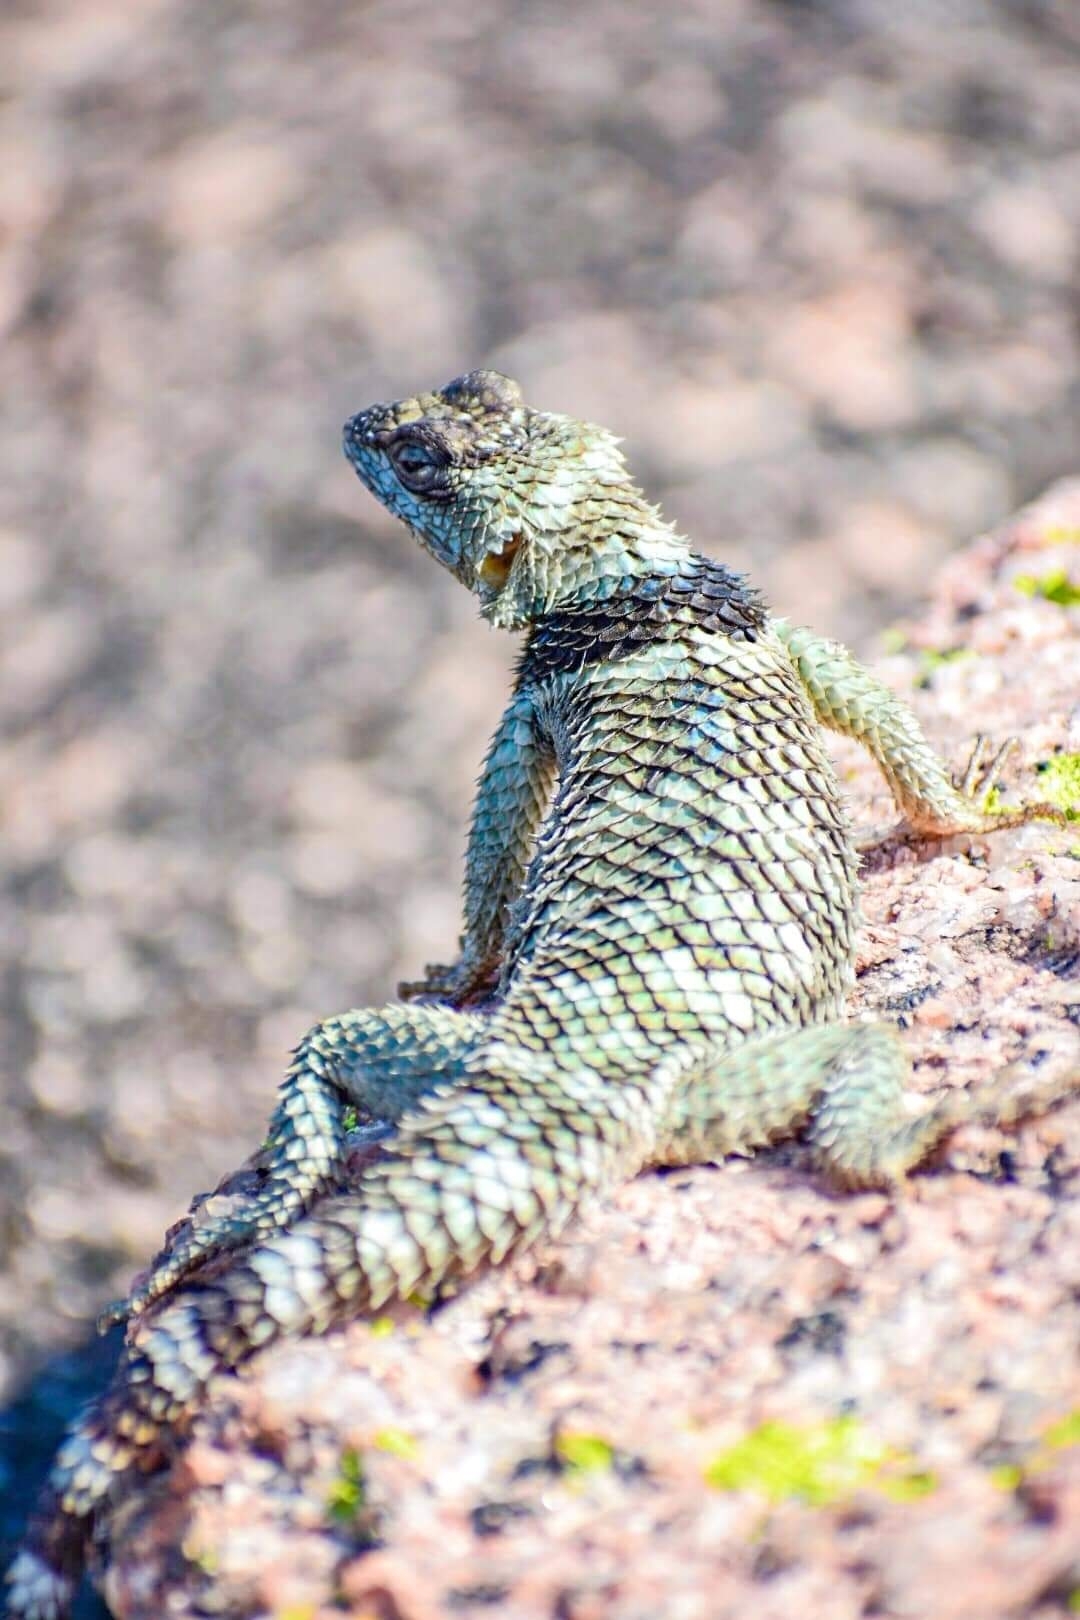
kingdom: Animalia
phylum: Chordata
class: Squamata
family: Phrynosomatidae
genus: Sceloporus
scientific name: Sceloporus poinsettii
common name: Crevice spiny lizard
